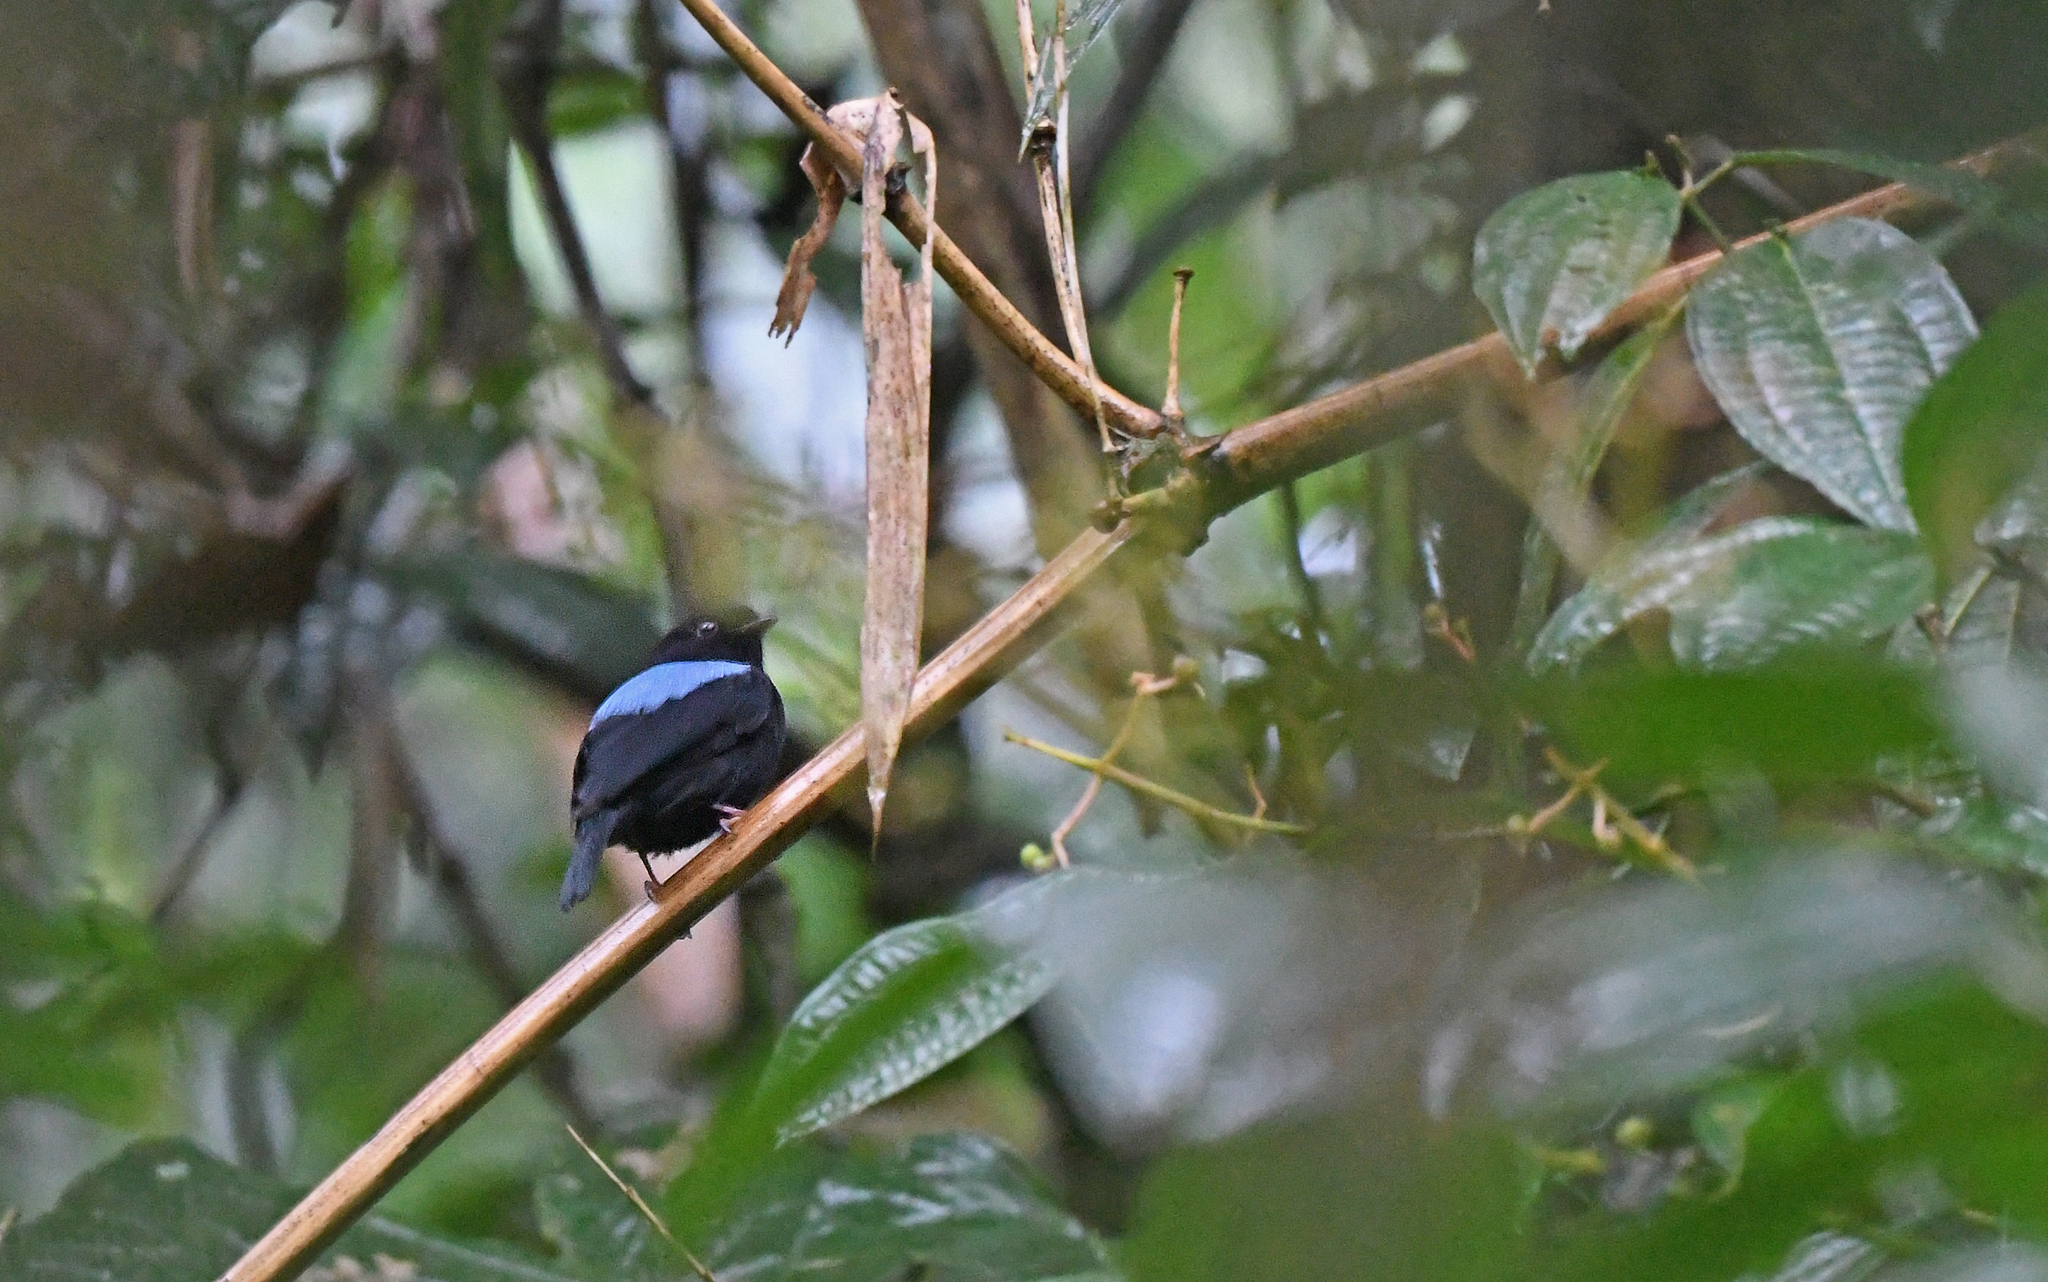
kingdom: Animalia
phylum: Chordata
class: Aves
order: Passeriformes
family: Pipridae
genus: Chiroxiphia
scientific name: Chiroxiphia boliviana
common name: Yungas manakin
